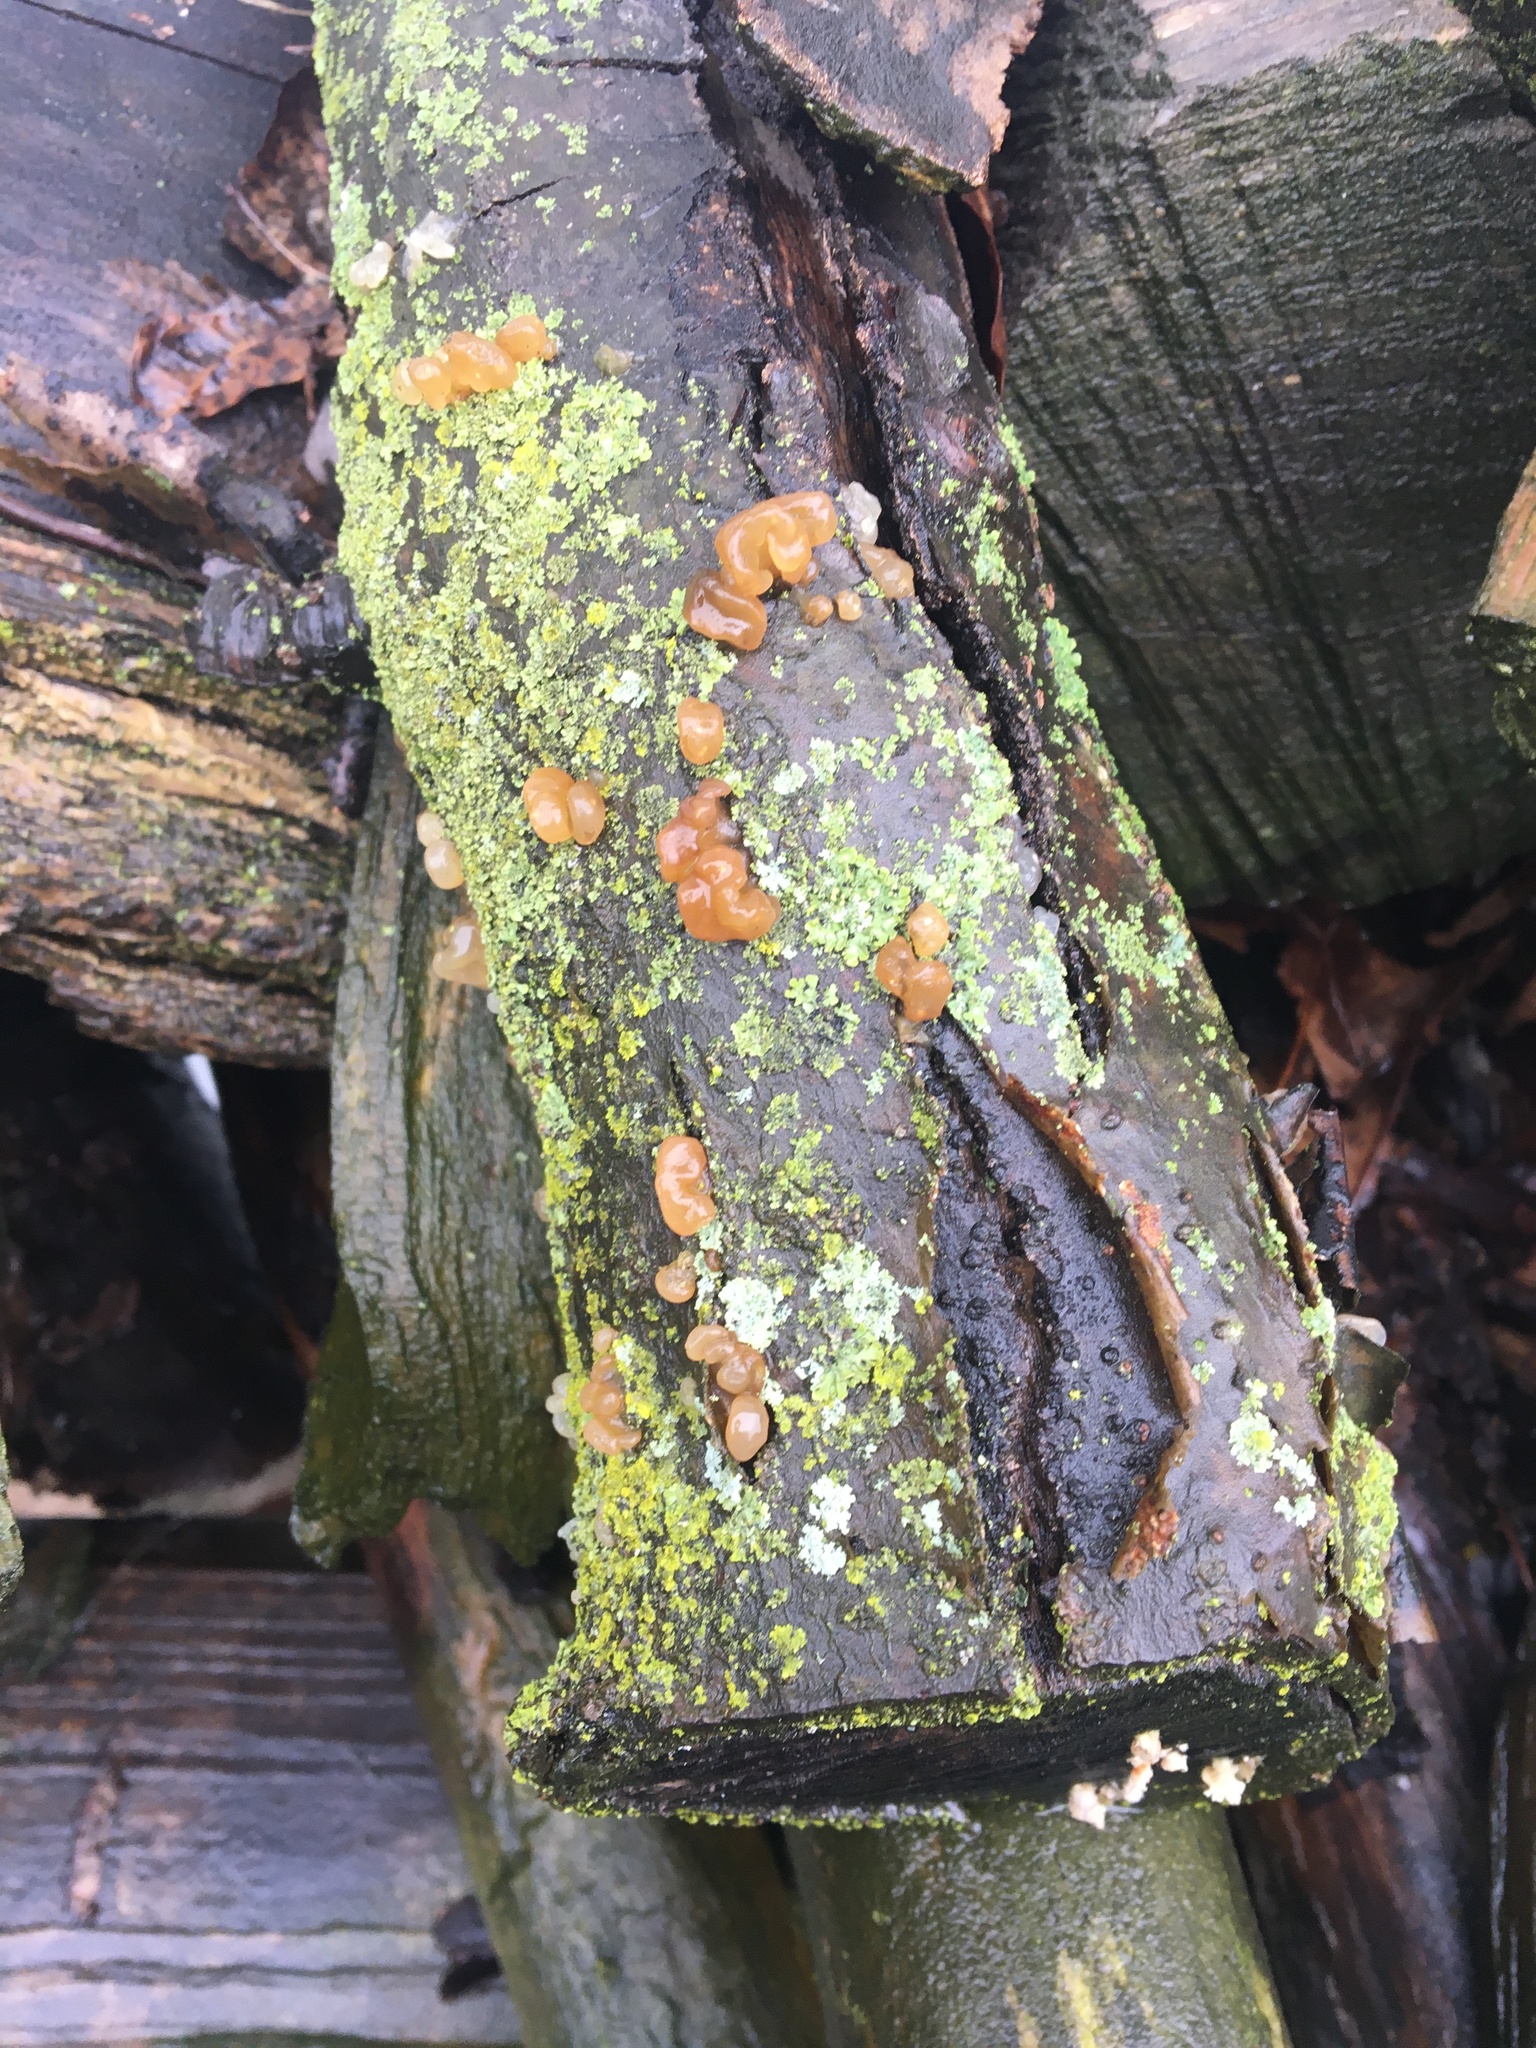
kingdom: Fungi
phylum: Basidiomycota
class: Agaricomycetes
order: Auriculariales
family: Hyaloriaceae
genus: Myxarium
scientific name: Myxarium nucleatum
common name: Crystal brain fungus
